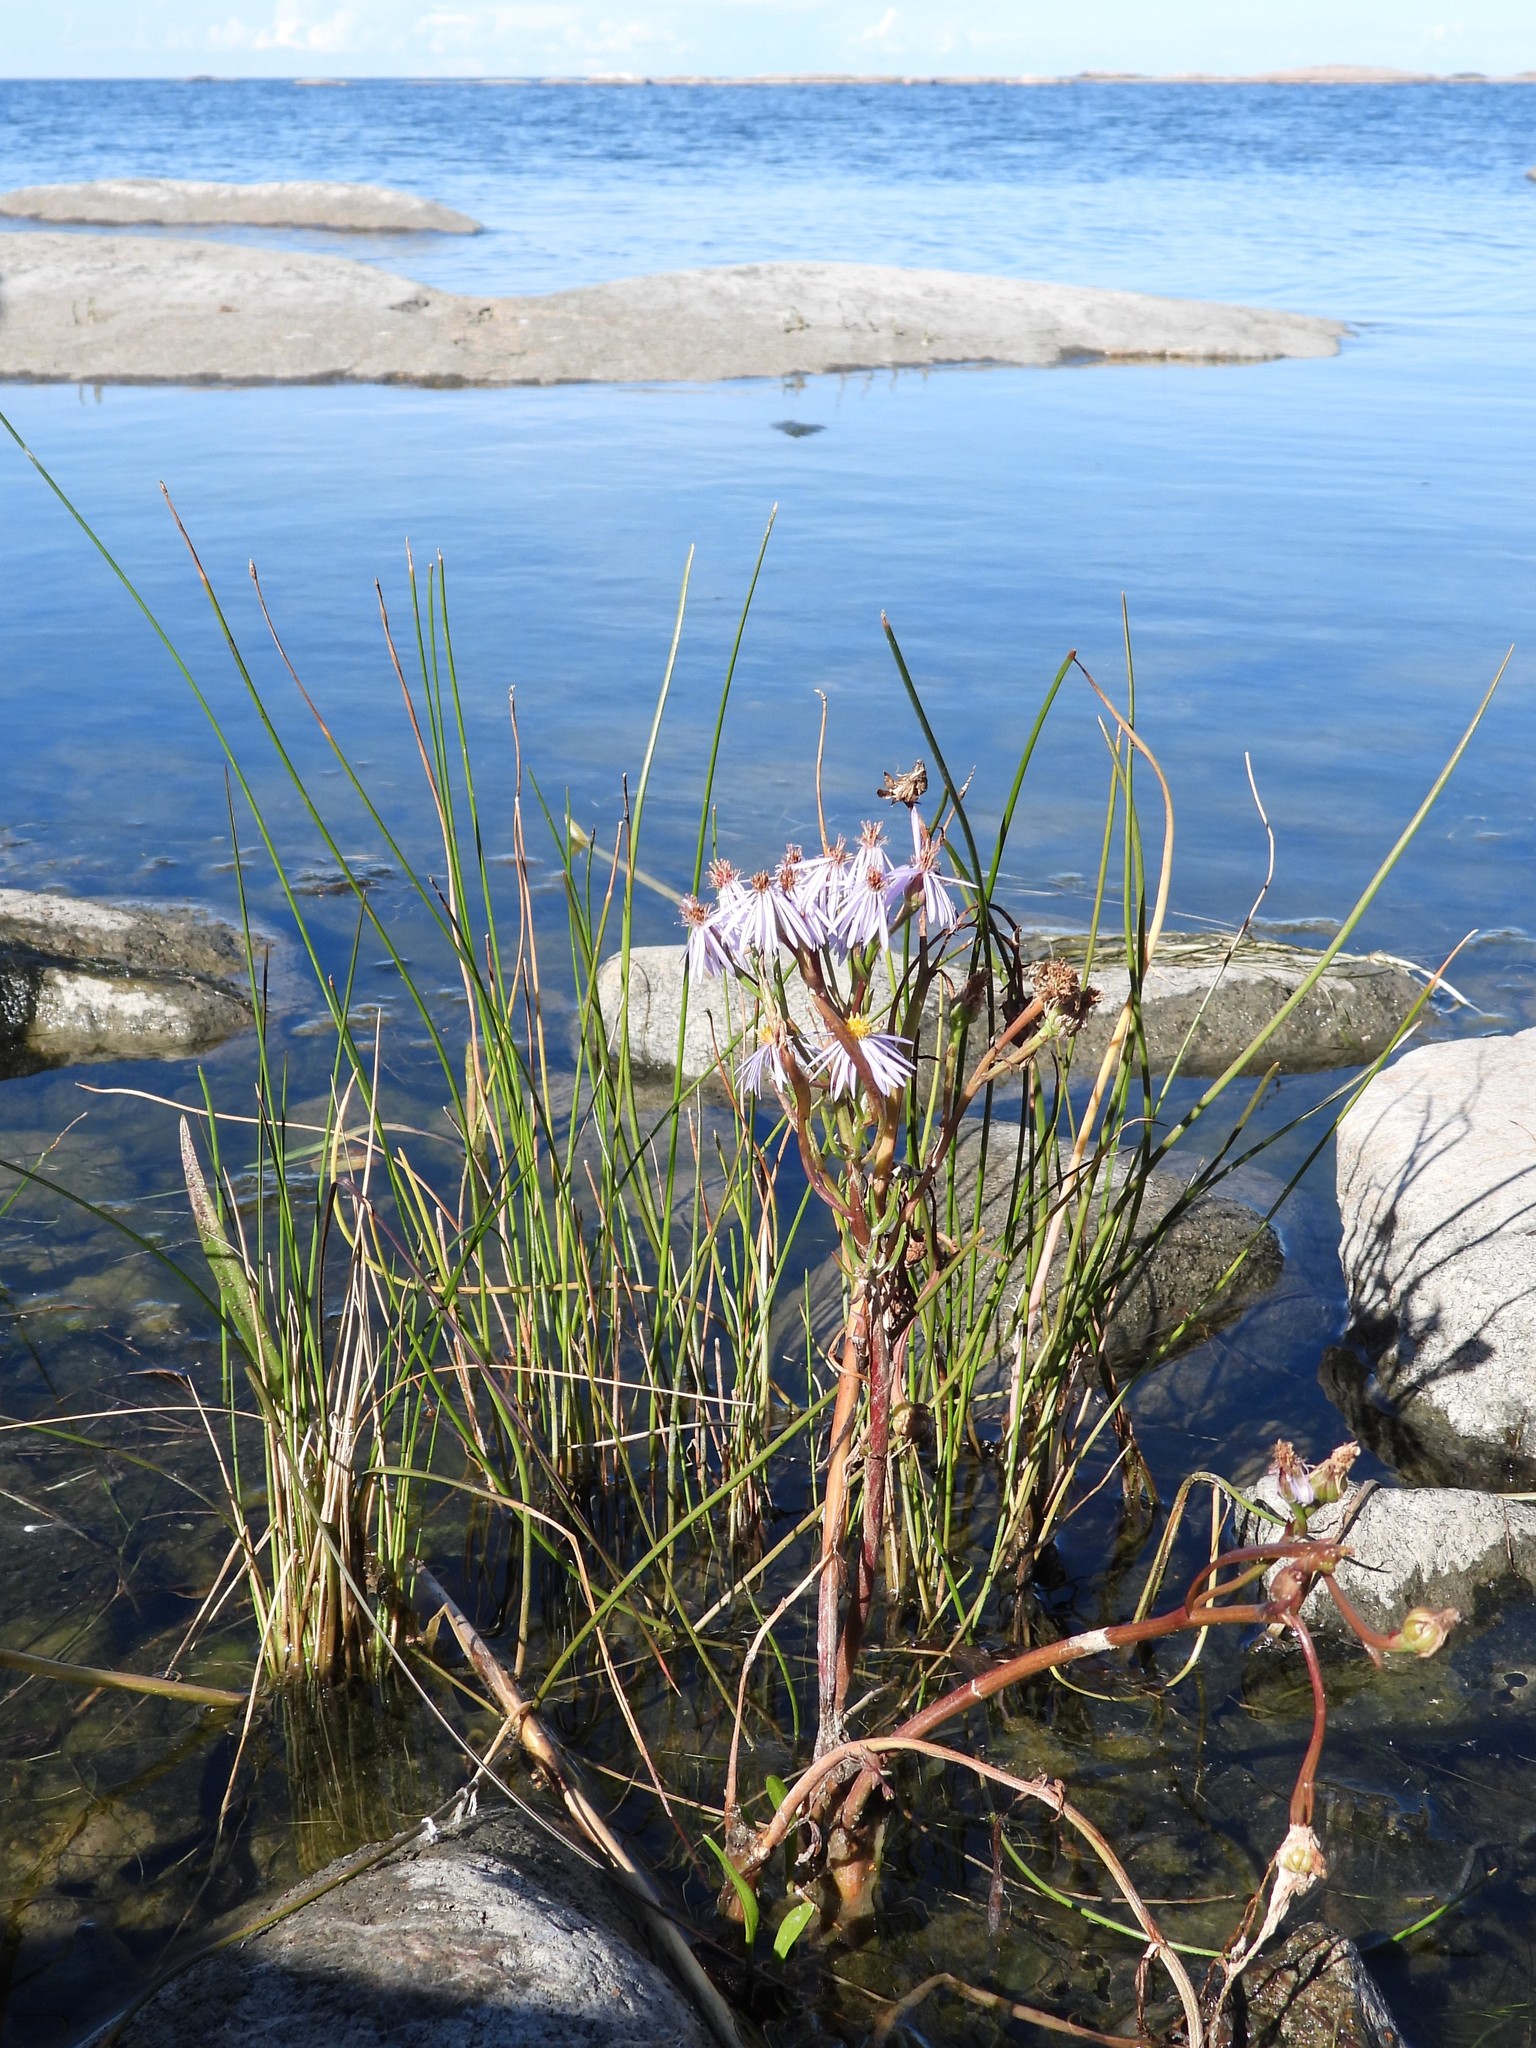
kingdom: Plantae
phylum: Tracheophyta
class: Magnoliopsida
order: Asterales
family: Asteraceae
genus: Tripolium
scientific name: Tripolium pannonicum
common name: Sea aster
